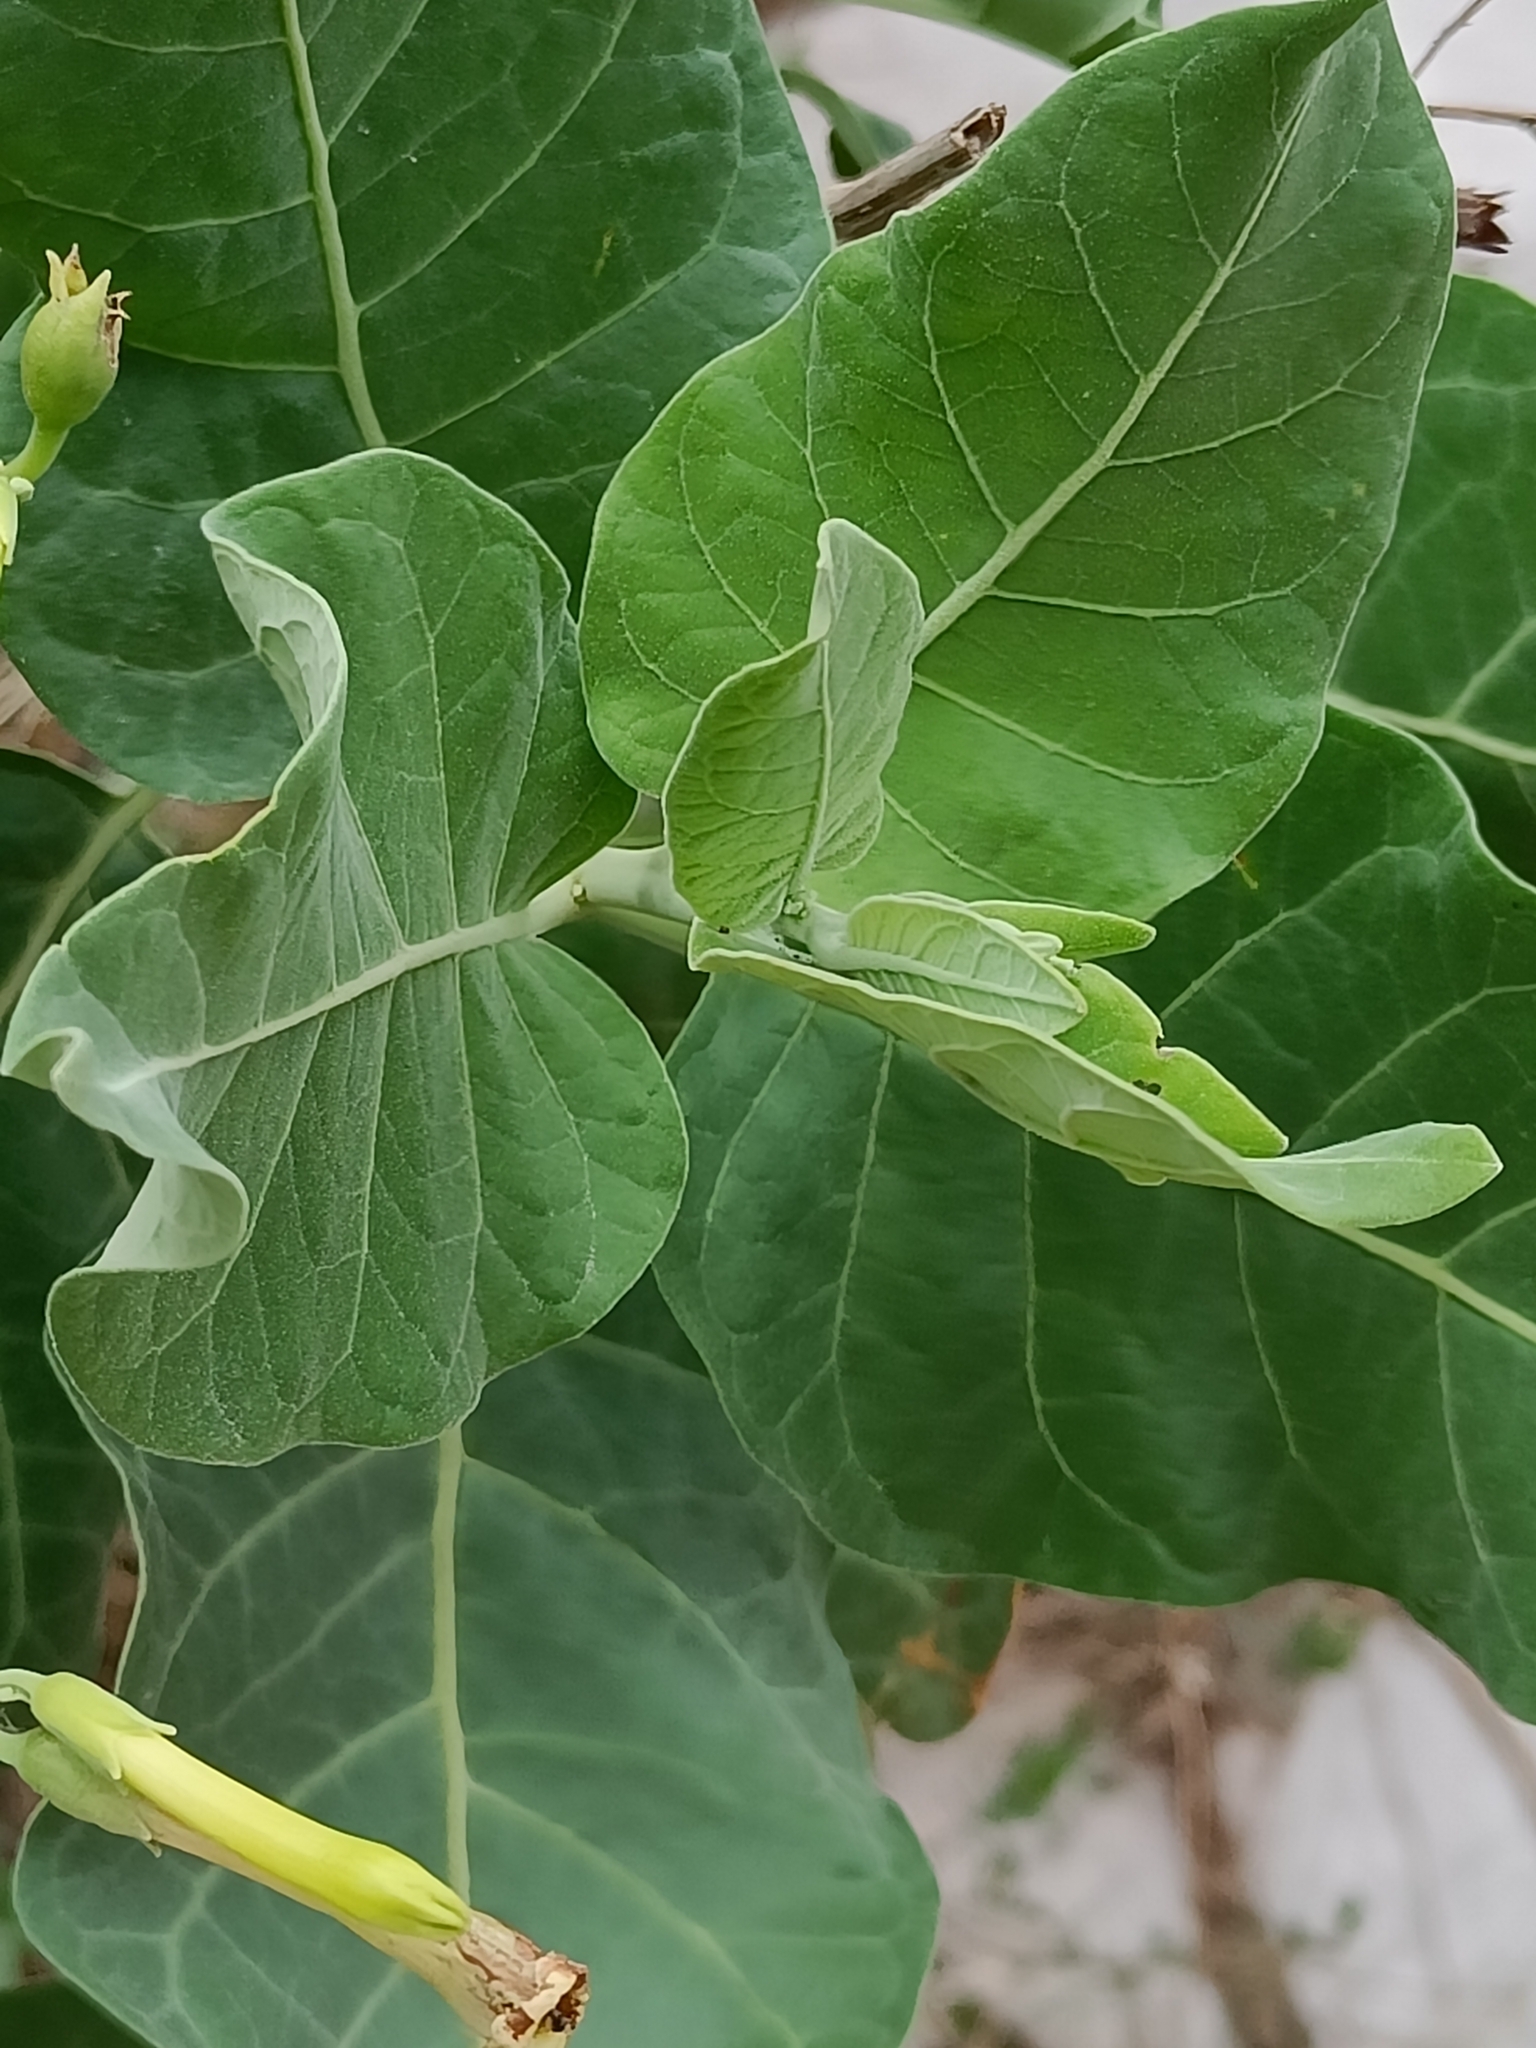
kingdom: Plantae
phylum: Tracheophyta
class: Magnoliopsida
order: Solanales
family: Solanaceae
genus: Nicotiana
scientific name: Nicotiana paniculata
